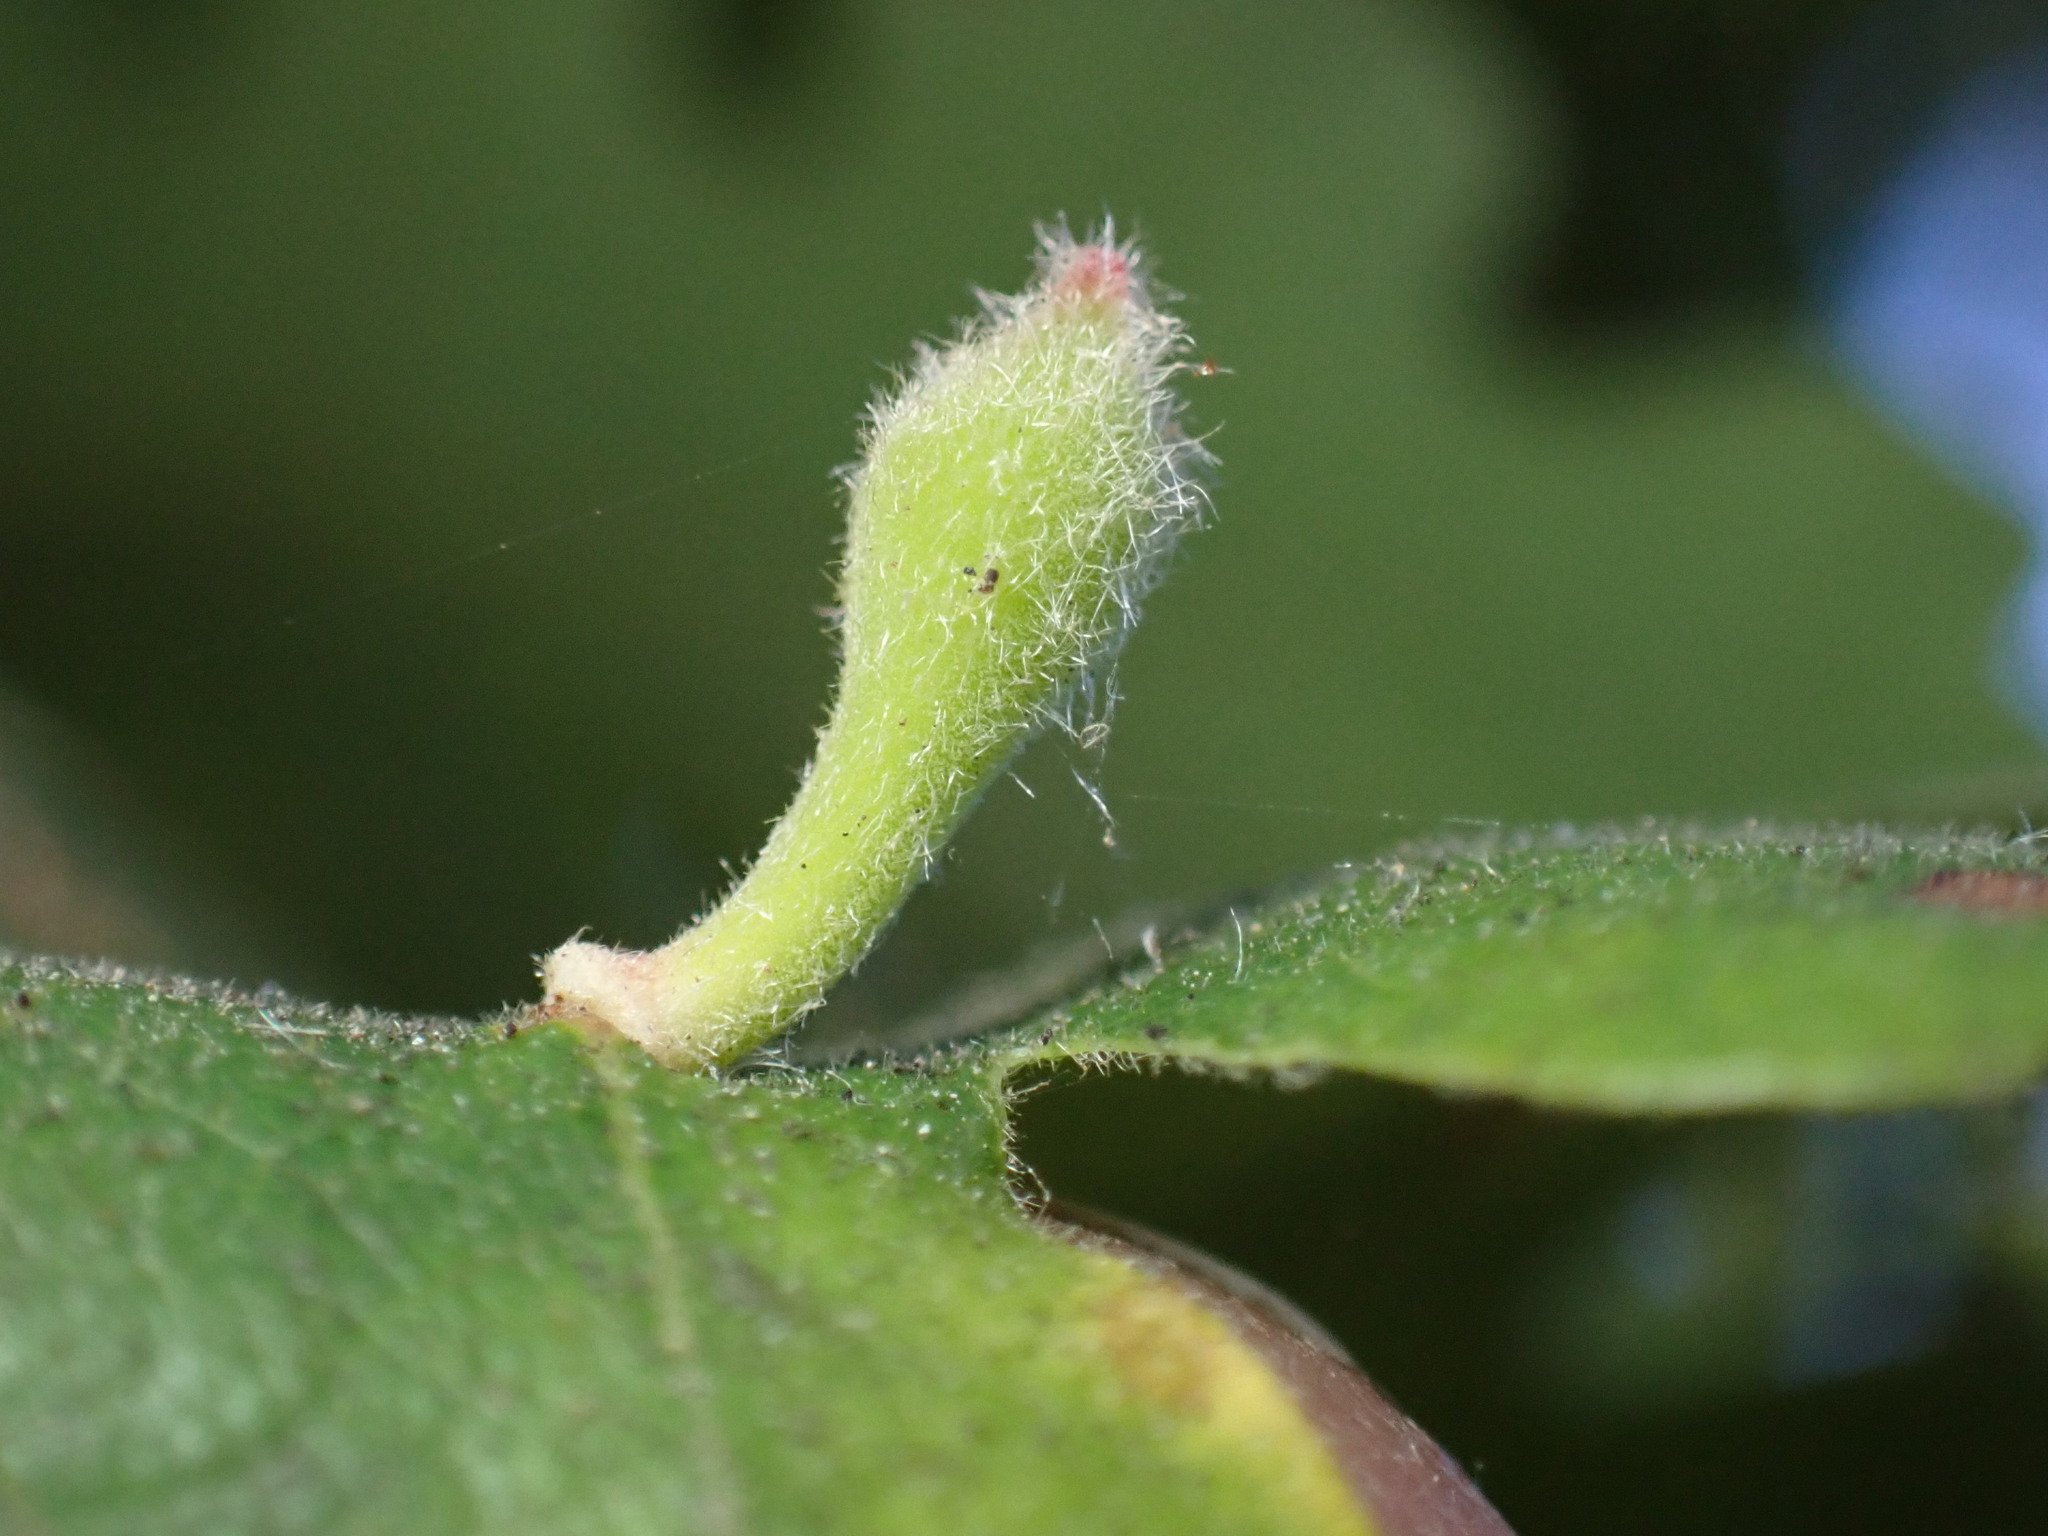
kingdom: Animalia
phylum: Arthropoda
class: Insecta
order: Hymenoptera
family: Cynipidae
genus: Atrusca
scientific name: Atrusca
